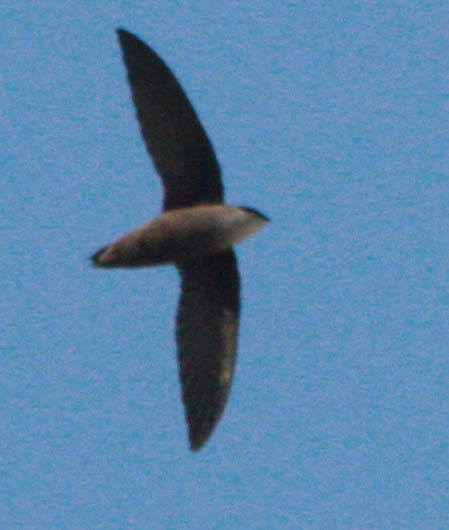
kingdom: Animalia
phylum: Chordata
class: Aves
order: Apodiformes
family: Apodidae
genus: Chaetura
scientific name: Chaetura pelagica
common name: Chimney swift
